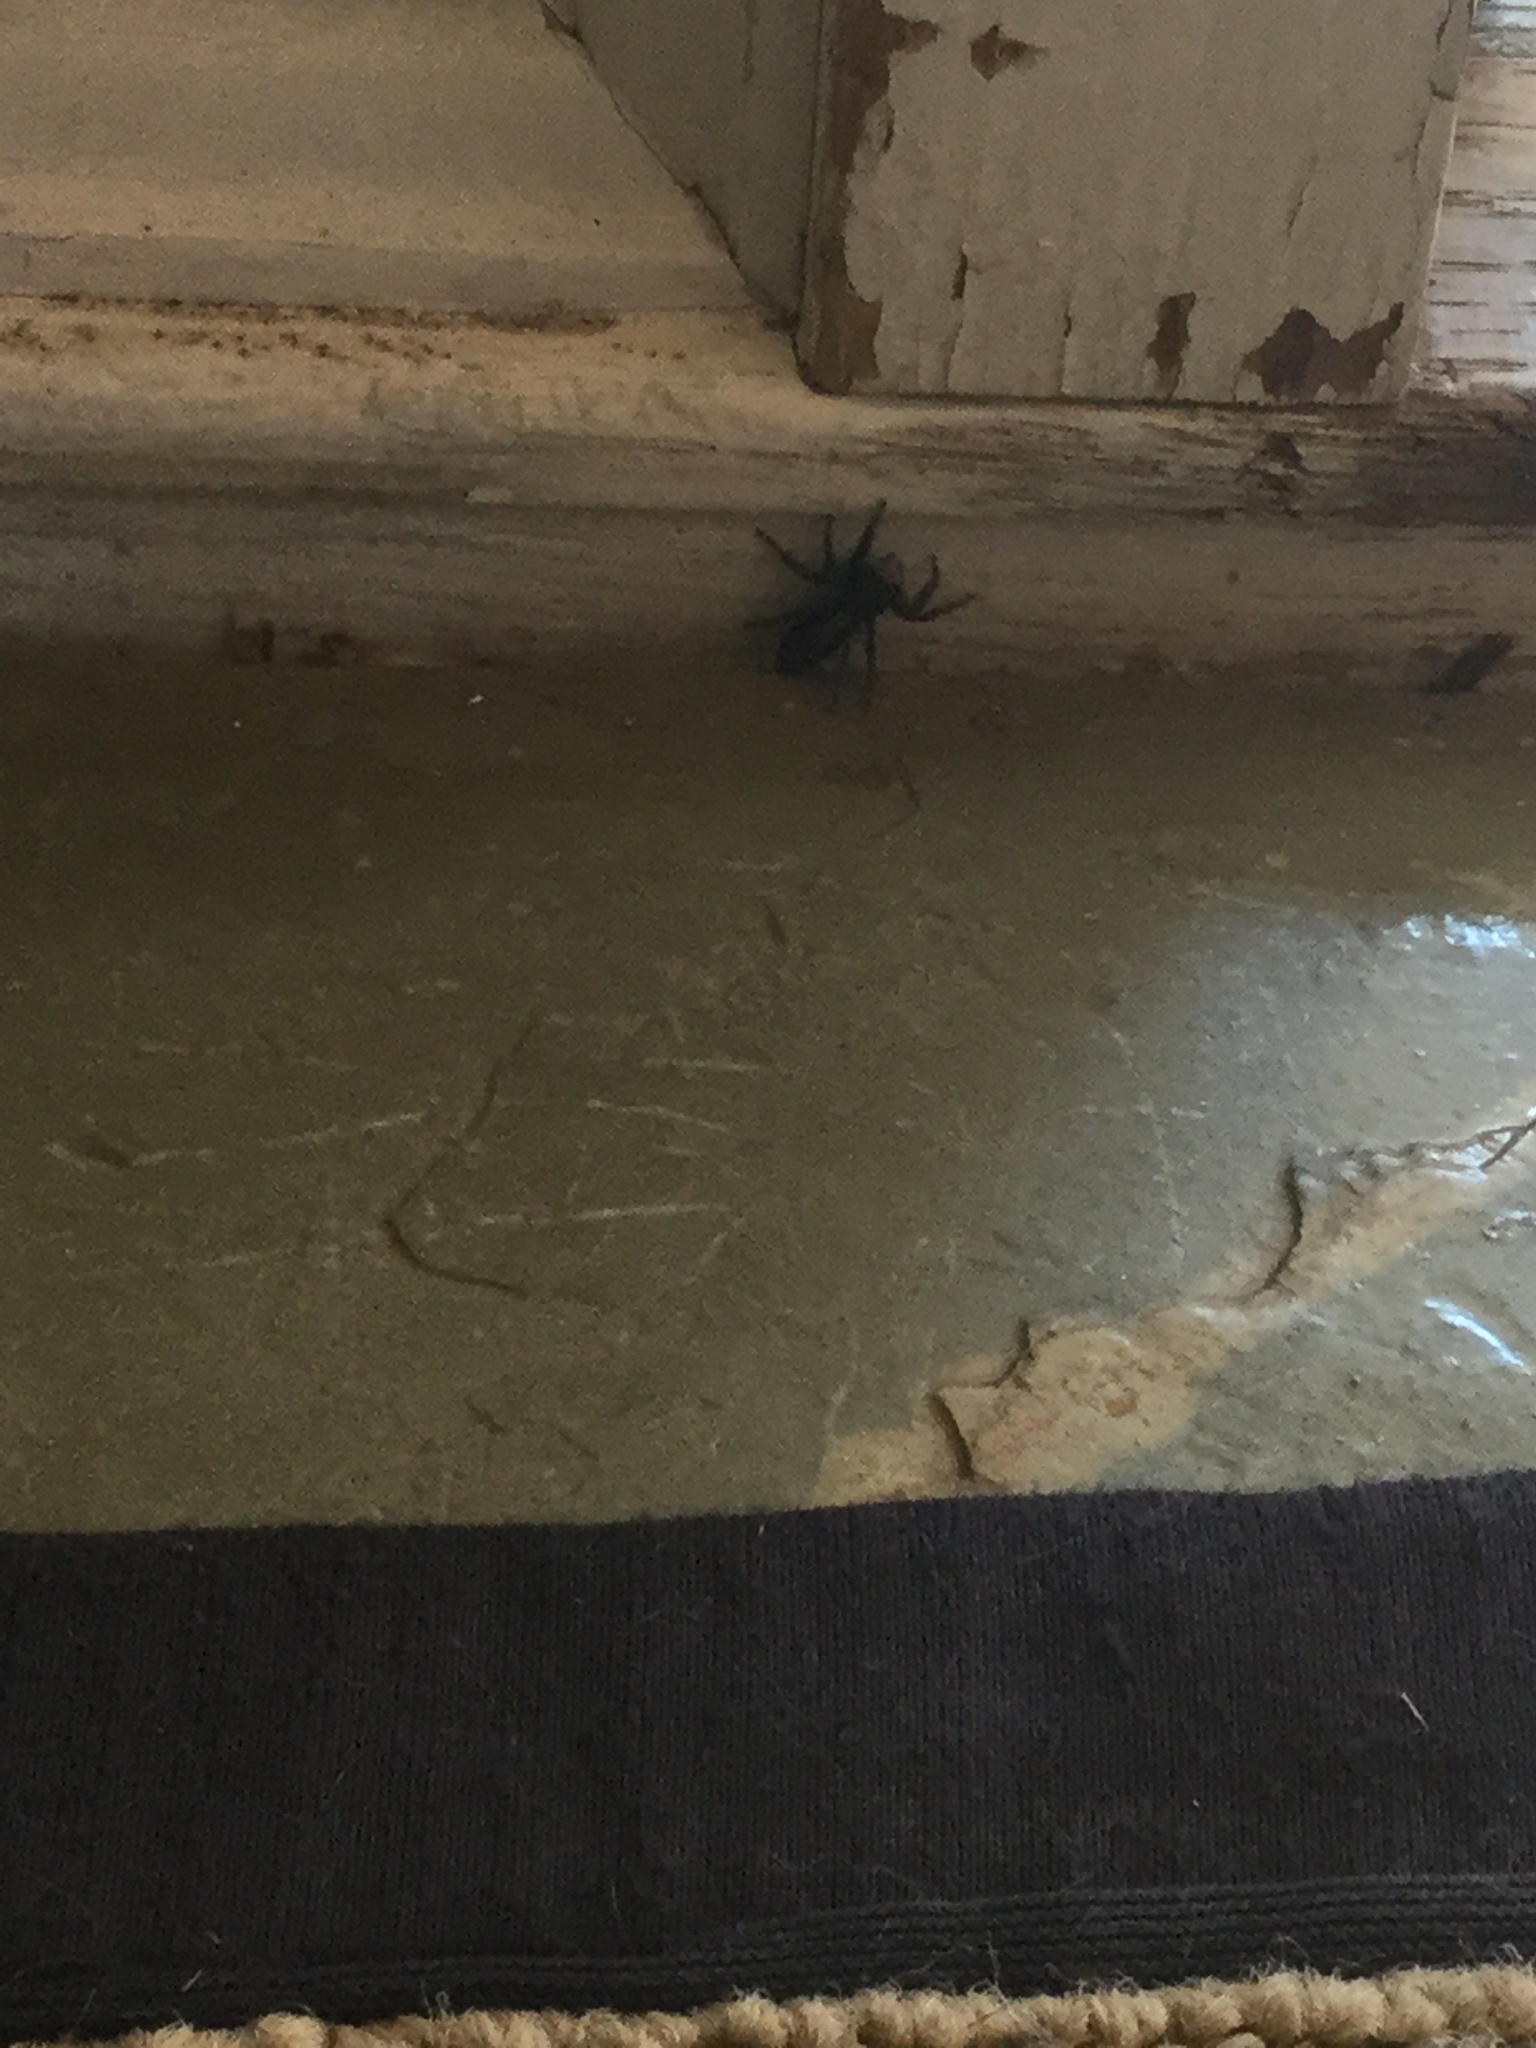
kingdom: Animalia
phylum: Arthropoda
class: Arachnida
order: Araneae
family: Salticidae
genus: Platycryptus
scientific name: Platycryptus californicus
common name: Jumping spiders
